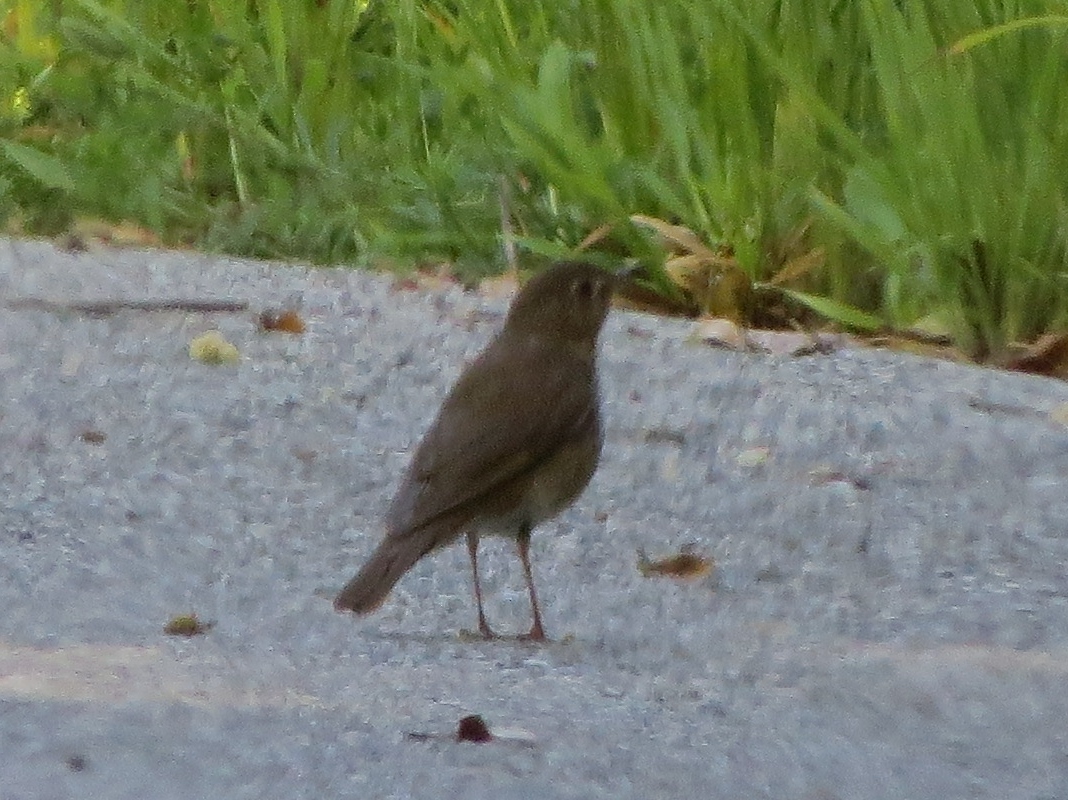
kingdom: Animalia
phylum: Chordata
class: Aves
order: Passeriformes
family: Turdidae
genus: Catharus
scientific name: Catharus ustulatus
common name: Swainson's thrush
